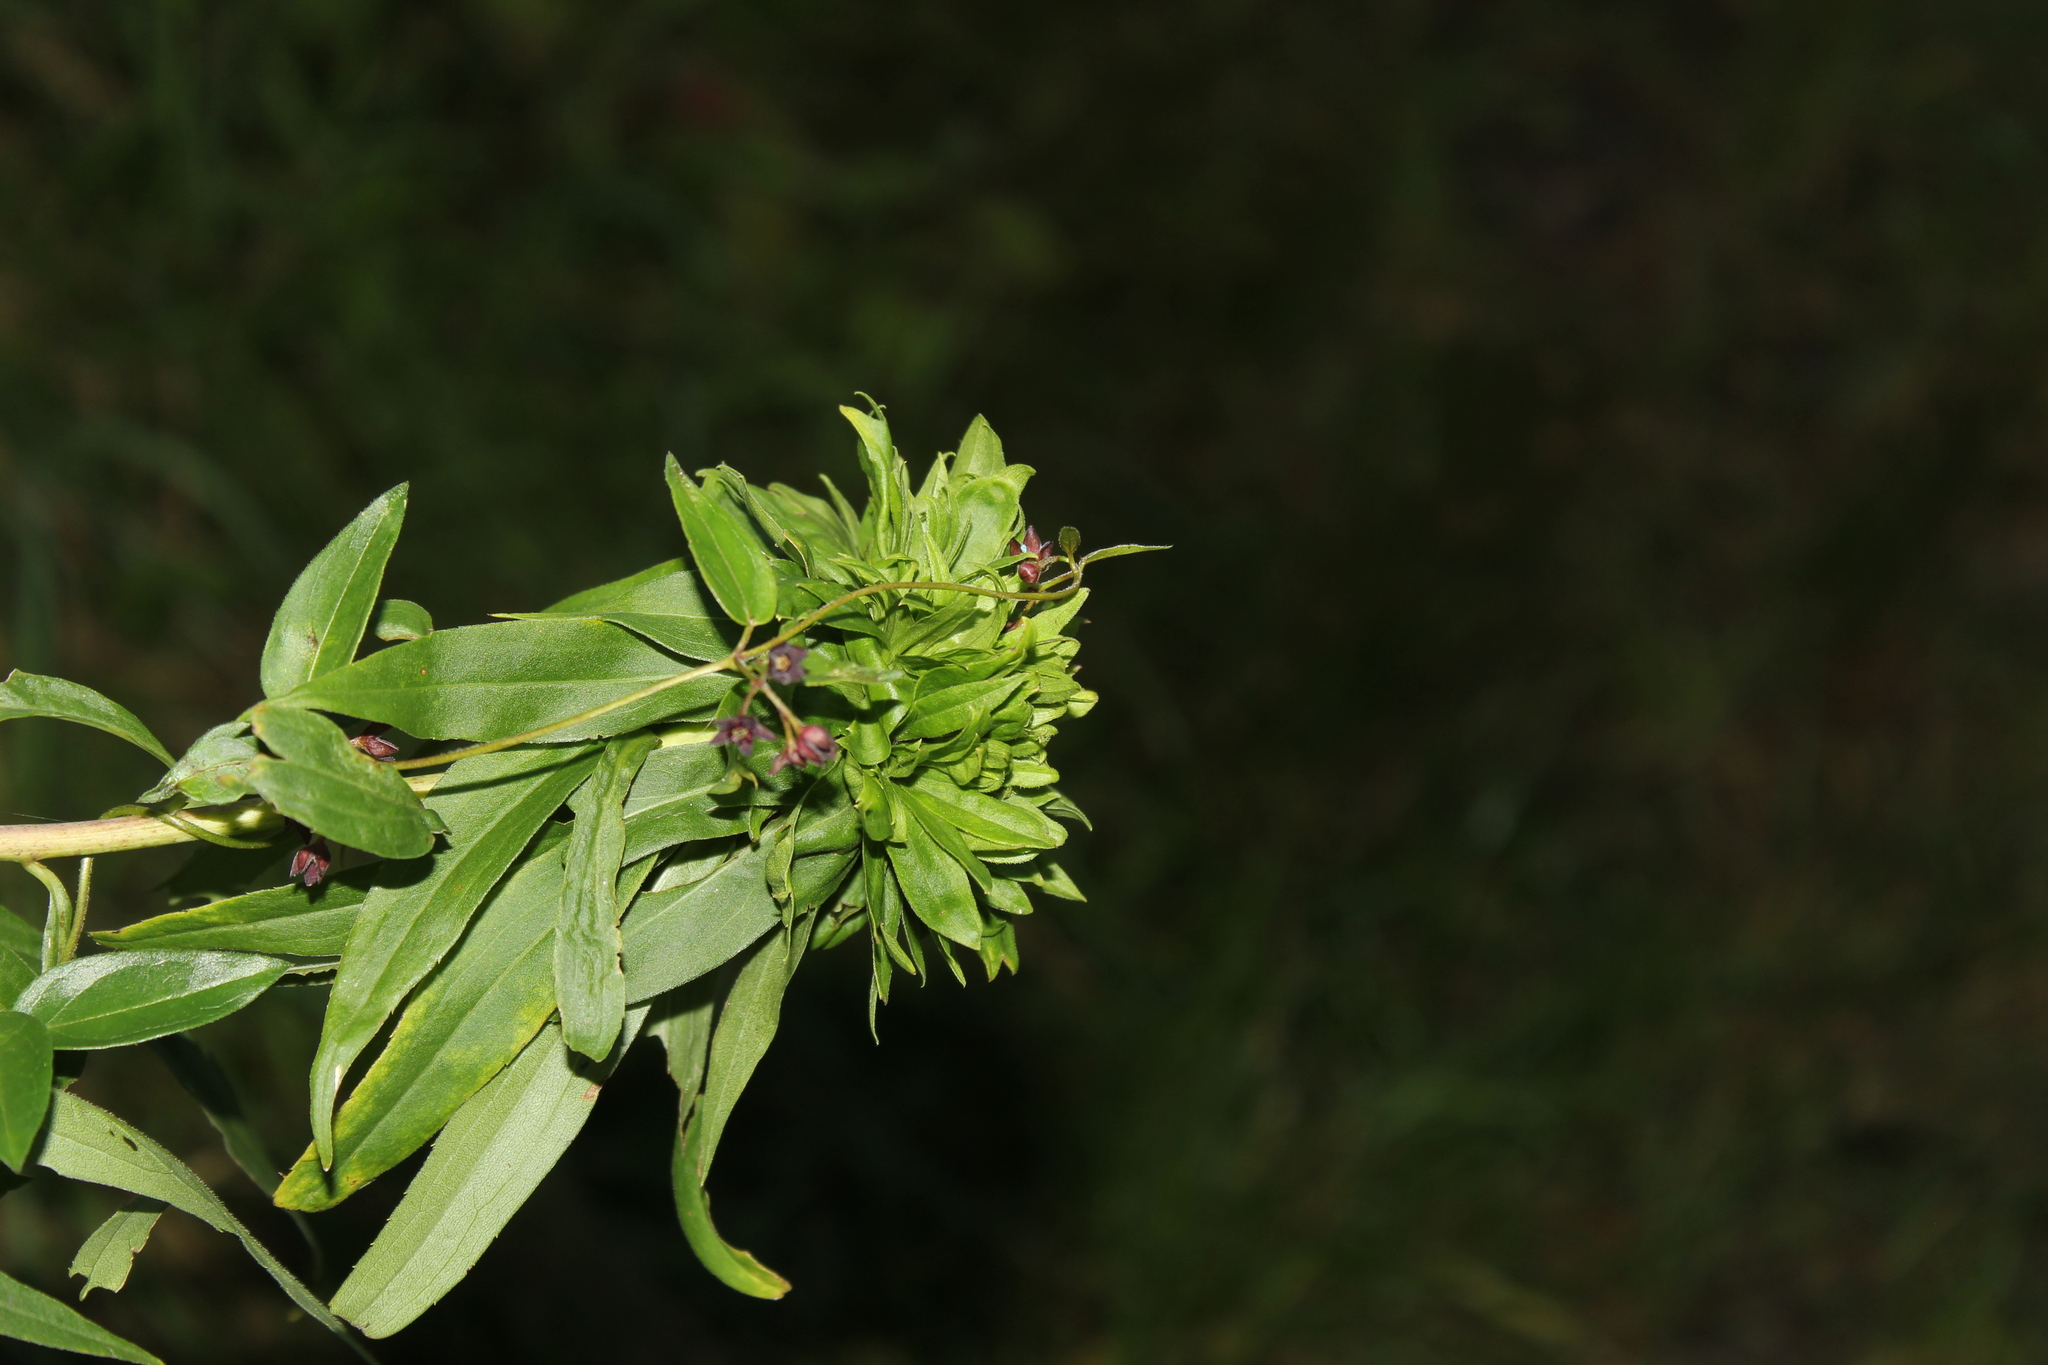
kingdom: Plantae
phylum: Tracheophyta
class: Magnoliopsida
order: Gentianales
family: Apocynaceae
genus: Vincetoxicum
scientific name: Vincetoxicum nigrum
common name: Black swallow-wort
